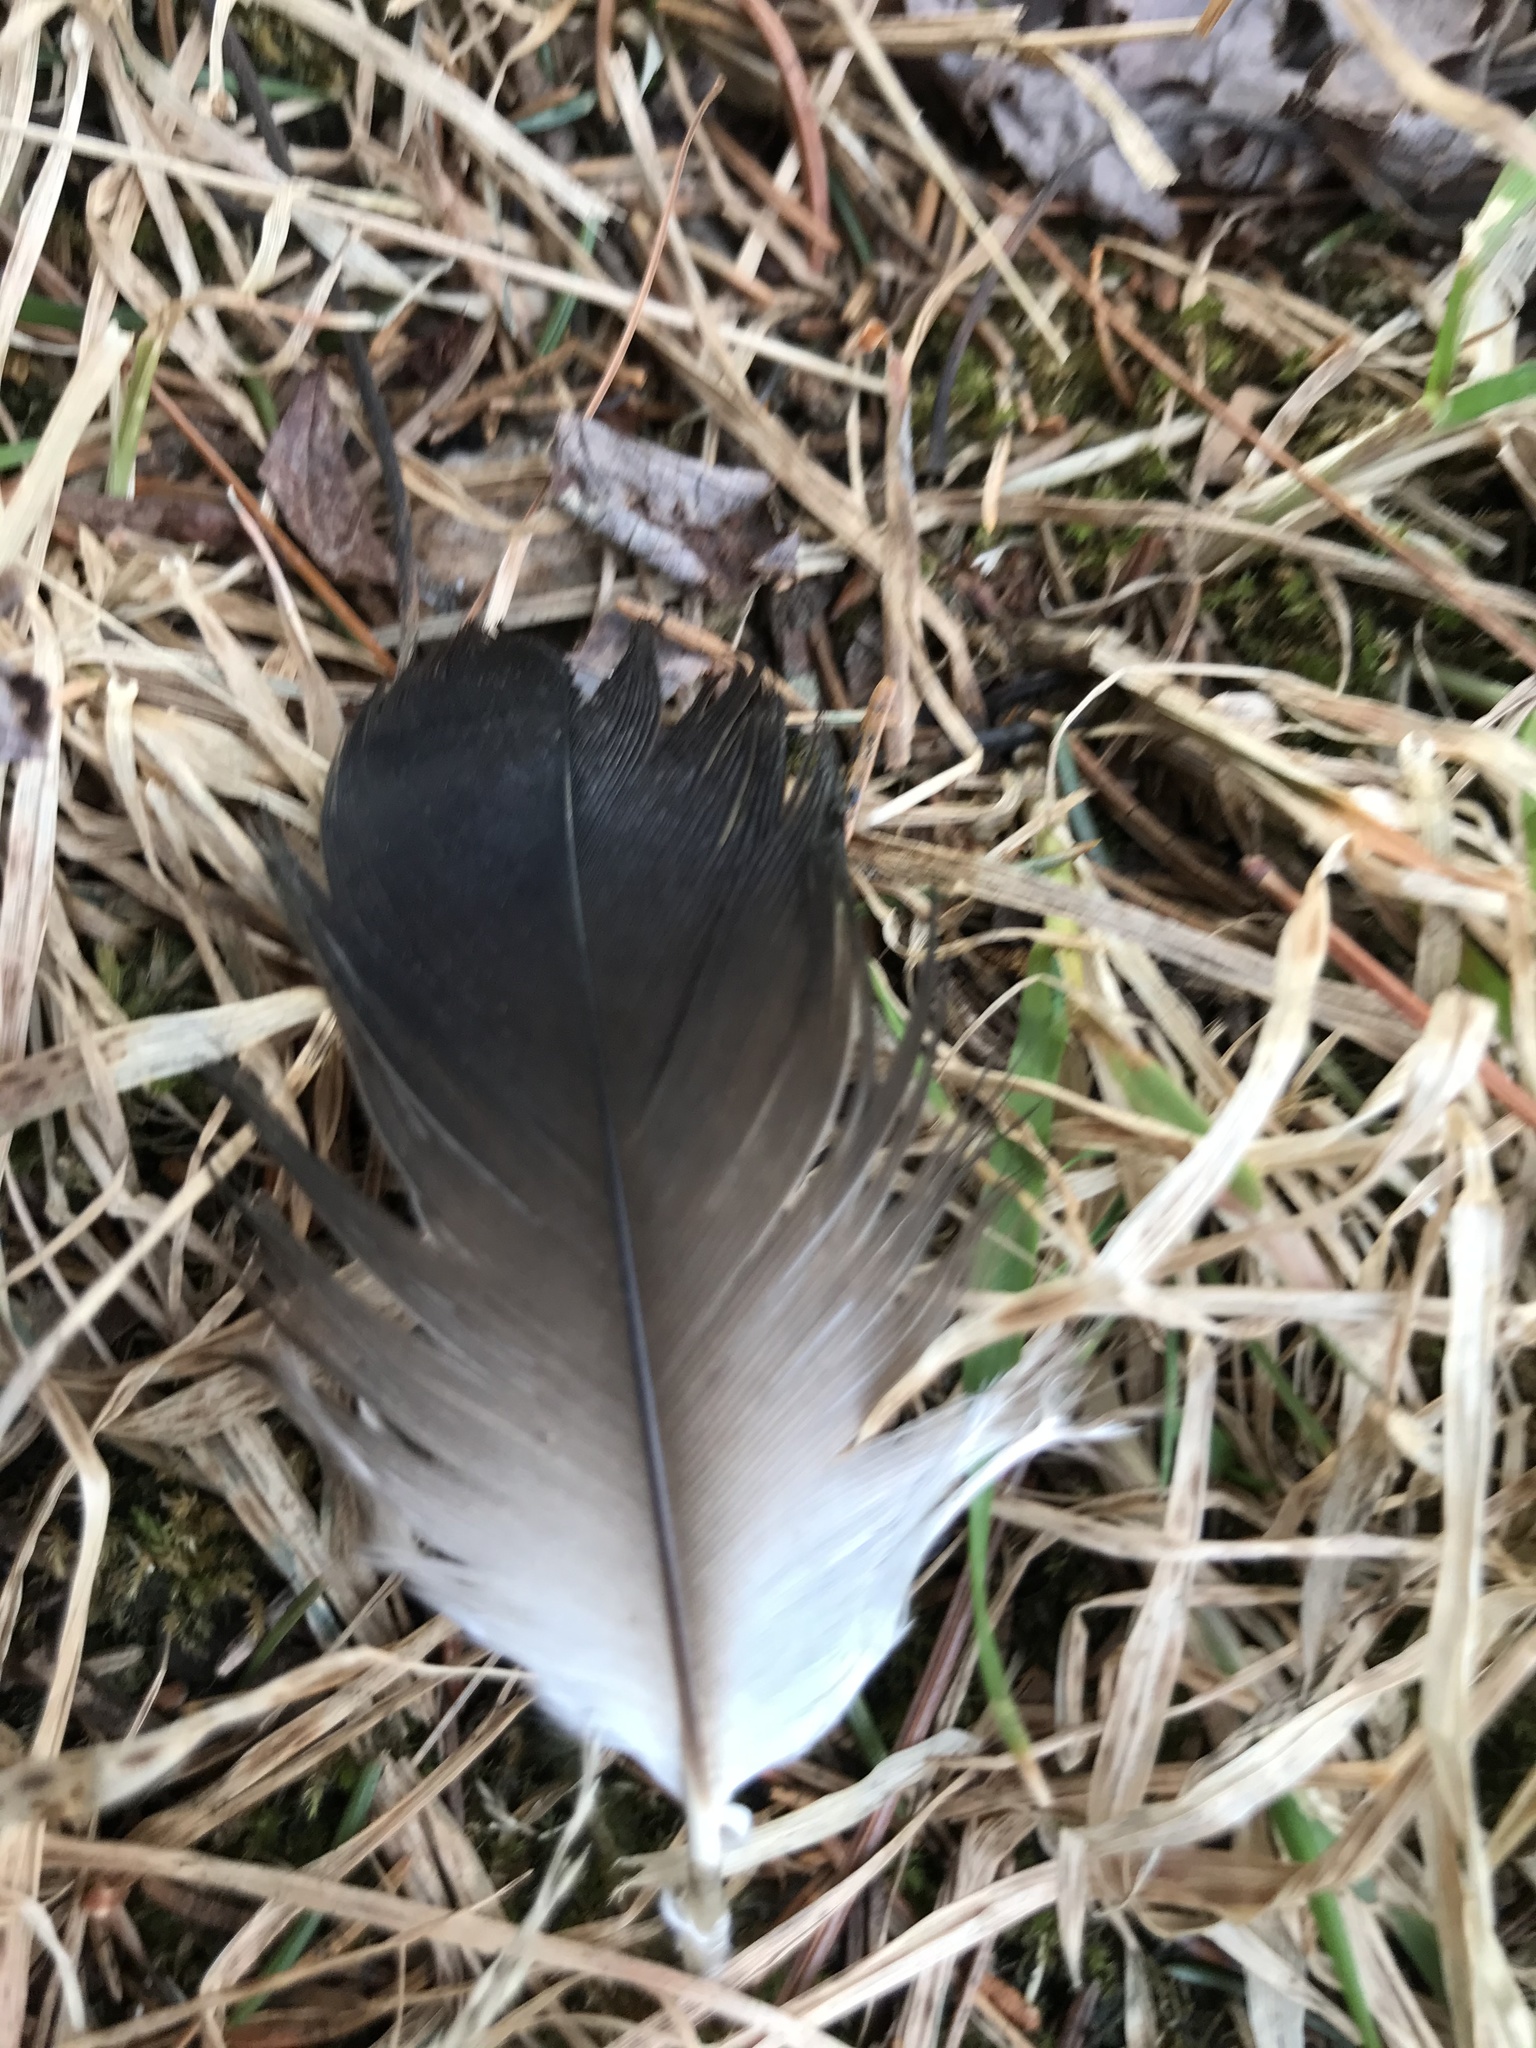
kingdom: Animalia
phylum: Chordata
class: Aves
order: Accipitriformes
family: Cathartidae
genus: Cathartes
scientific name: Cathartes aura
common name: Turkey vulture
